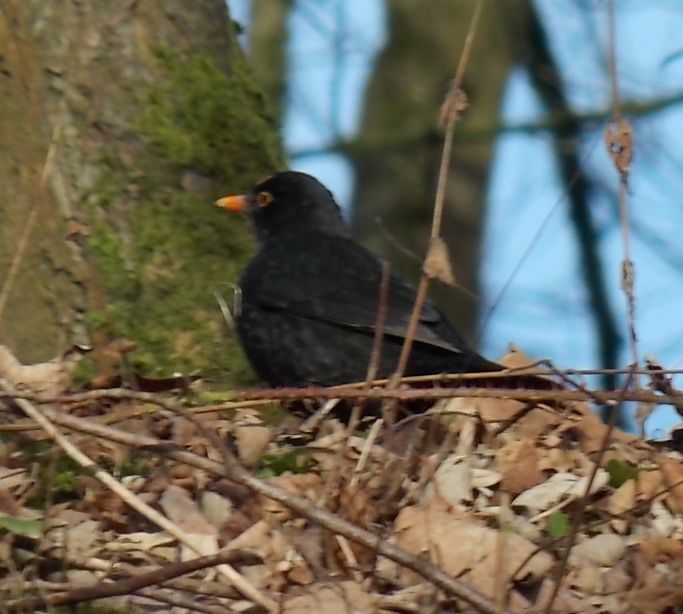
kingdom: Animalia
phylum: Chordata
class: Aves
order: Passeriformes
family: Turdidae
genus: Turdus
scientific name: Turdus merula
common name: Common blackbird
